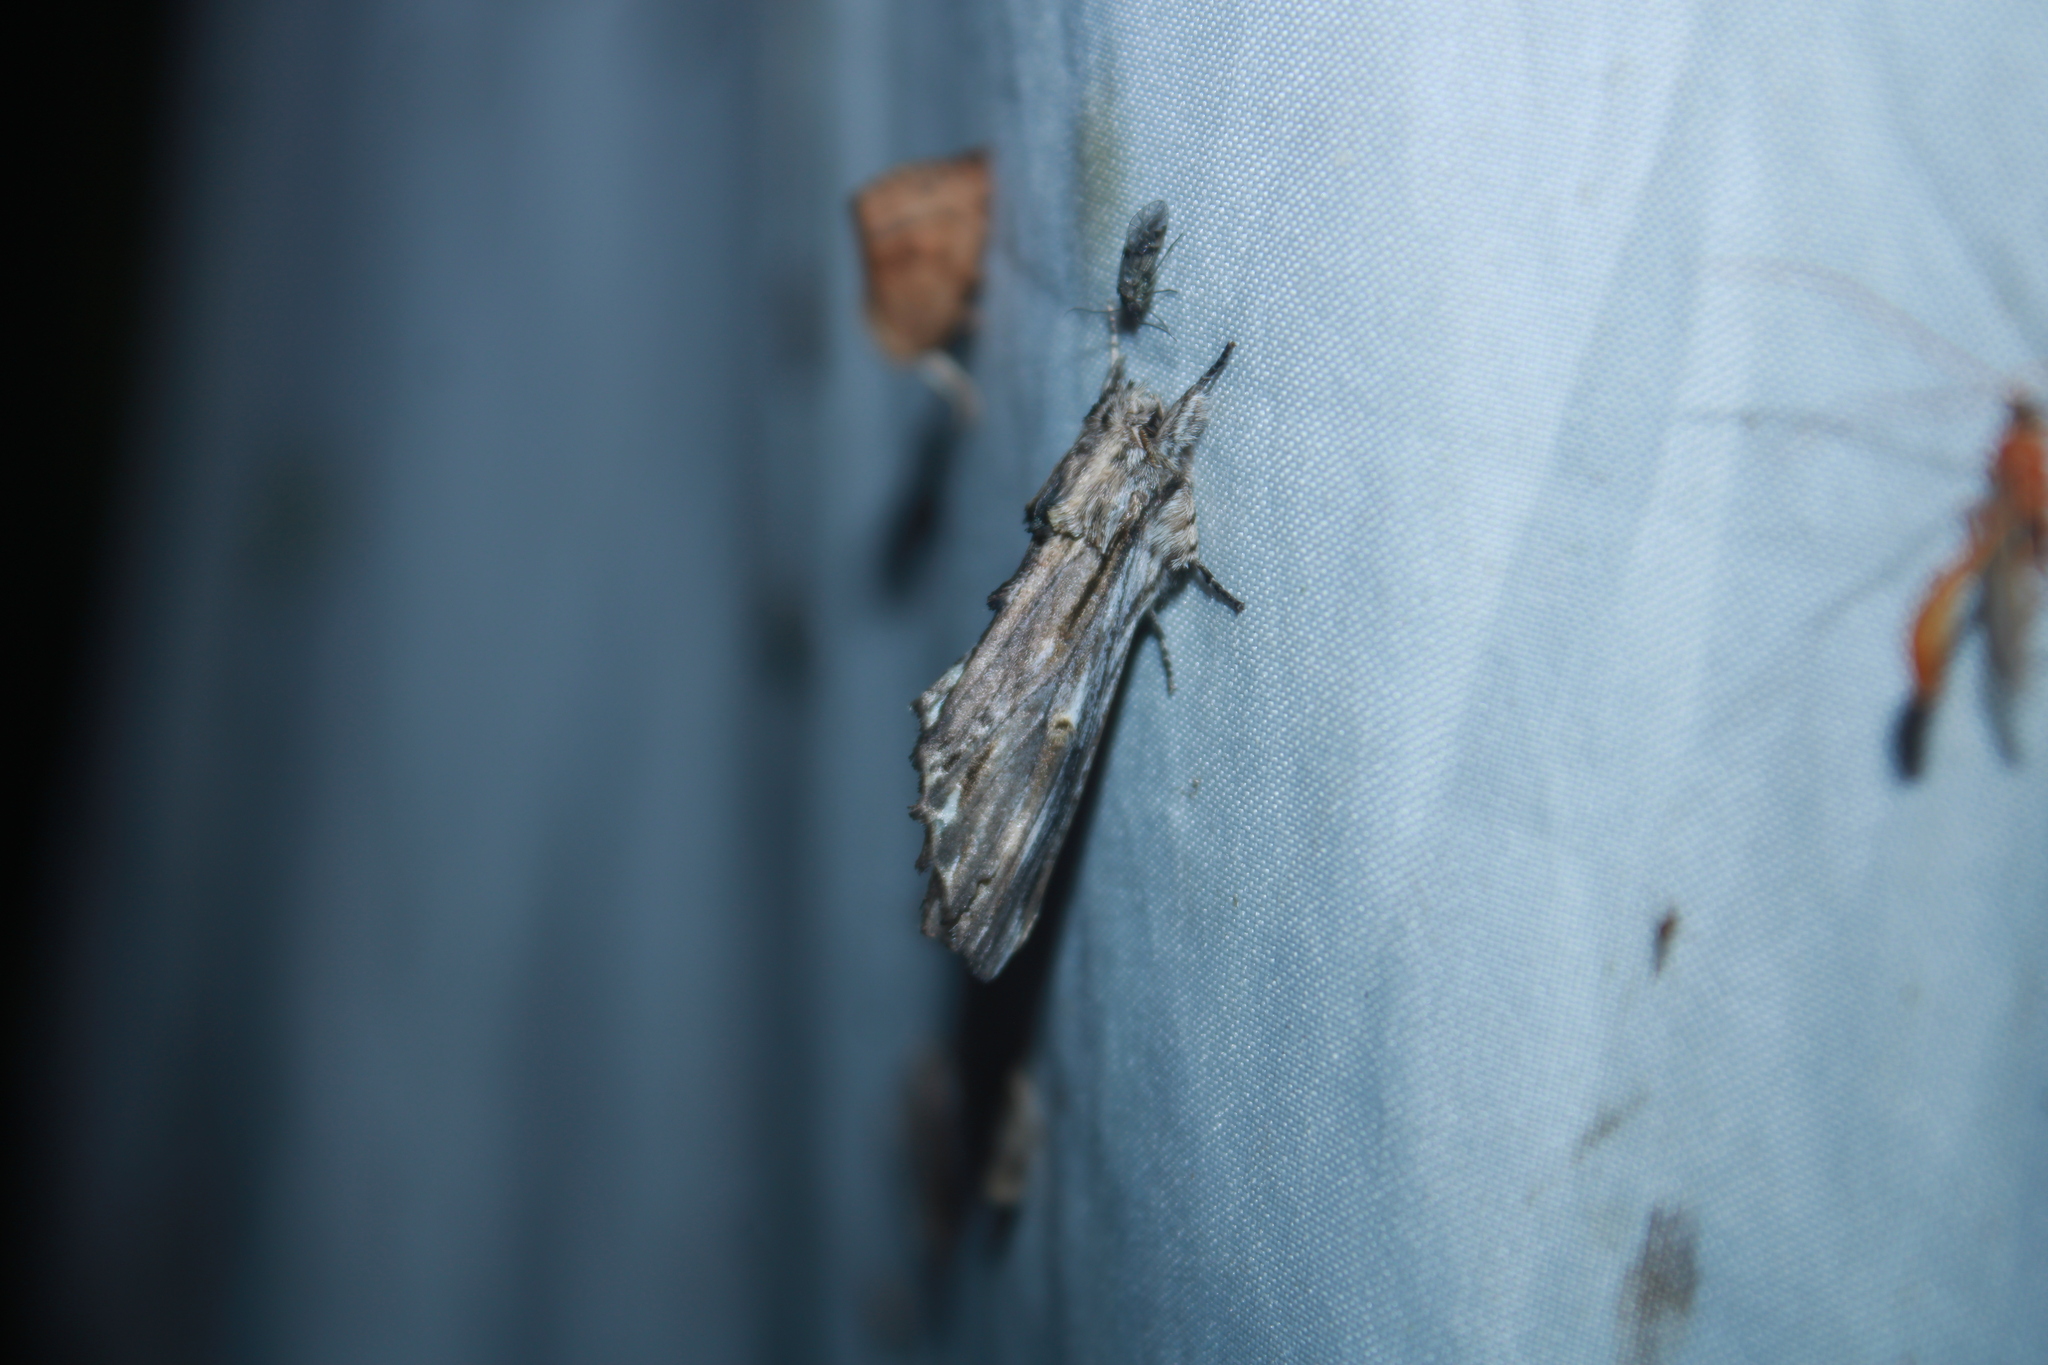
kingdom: Animalia
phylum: Arthropoda
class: Insecta
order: Lepidoptera
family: Notodontidae
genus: Oligocentria
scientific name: Oligocentria Ianassa lignicolor
